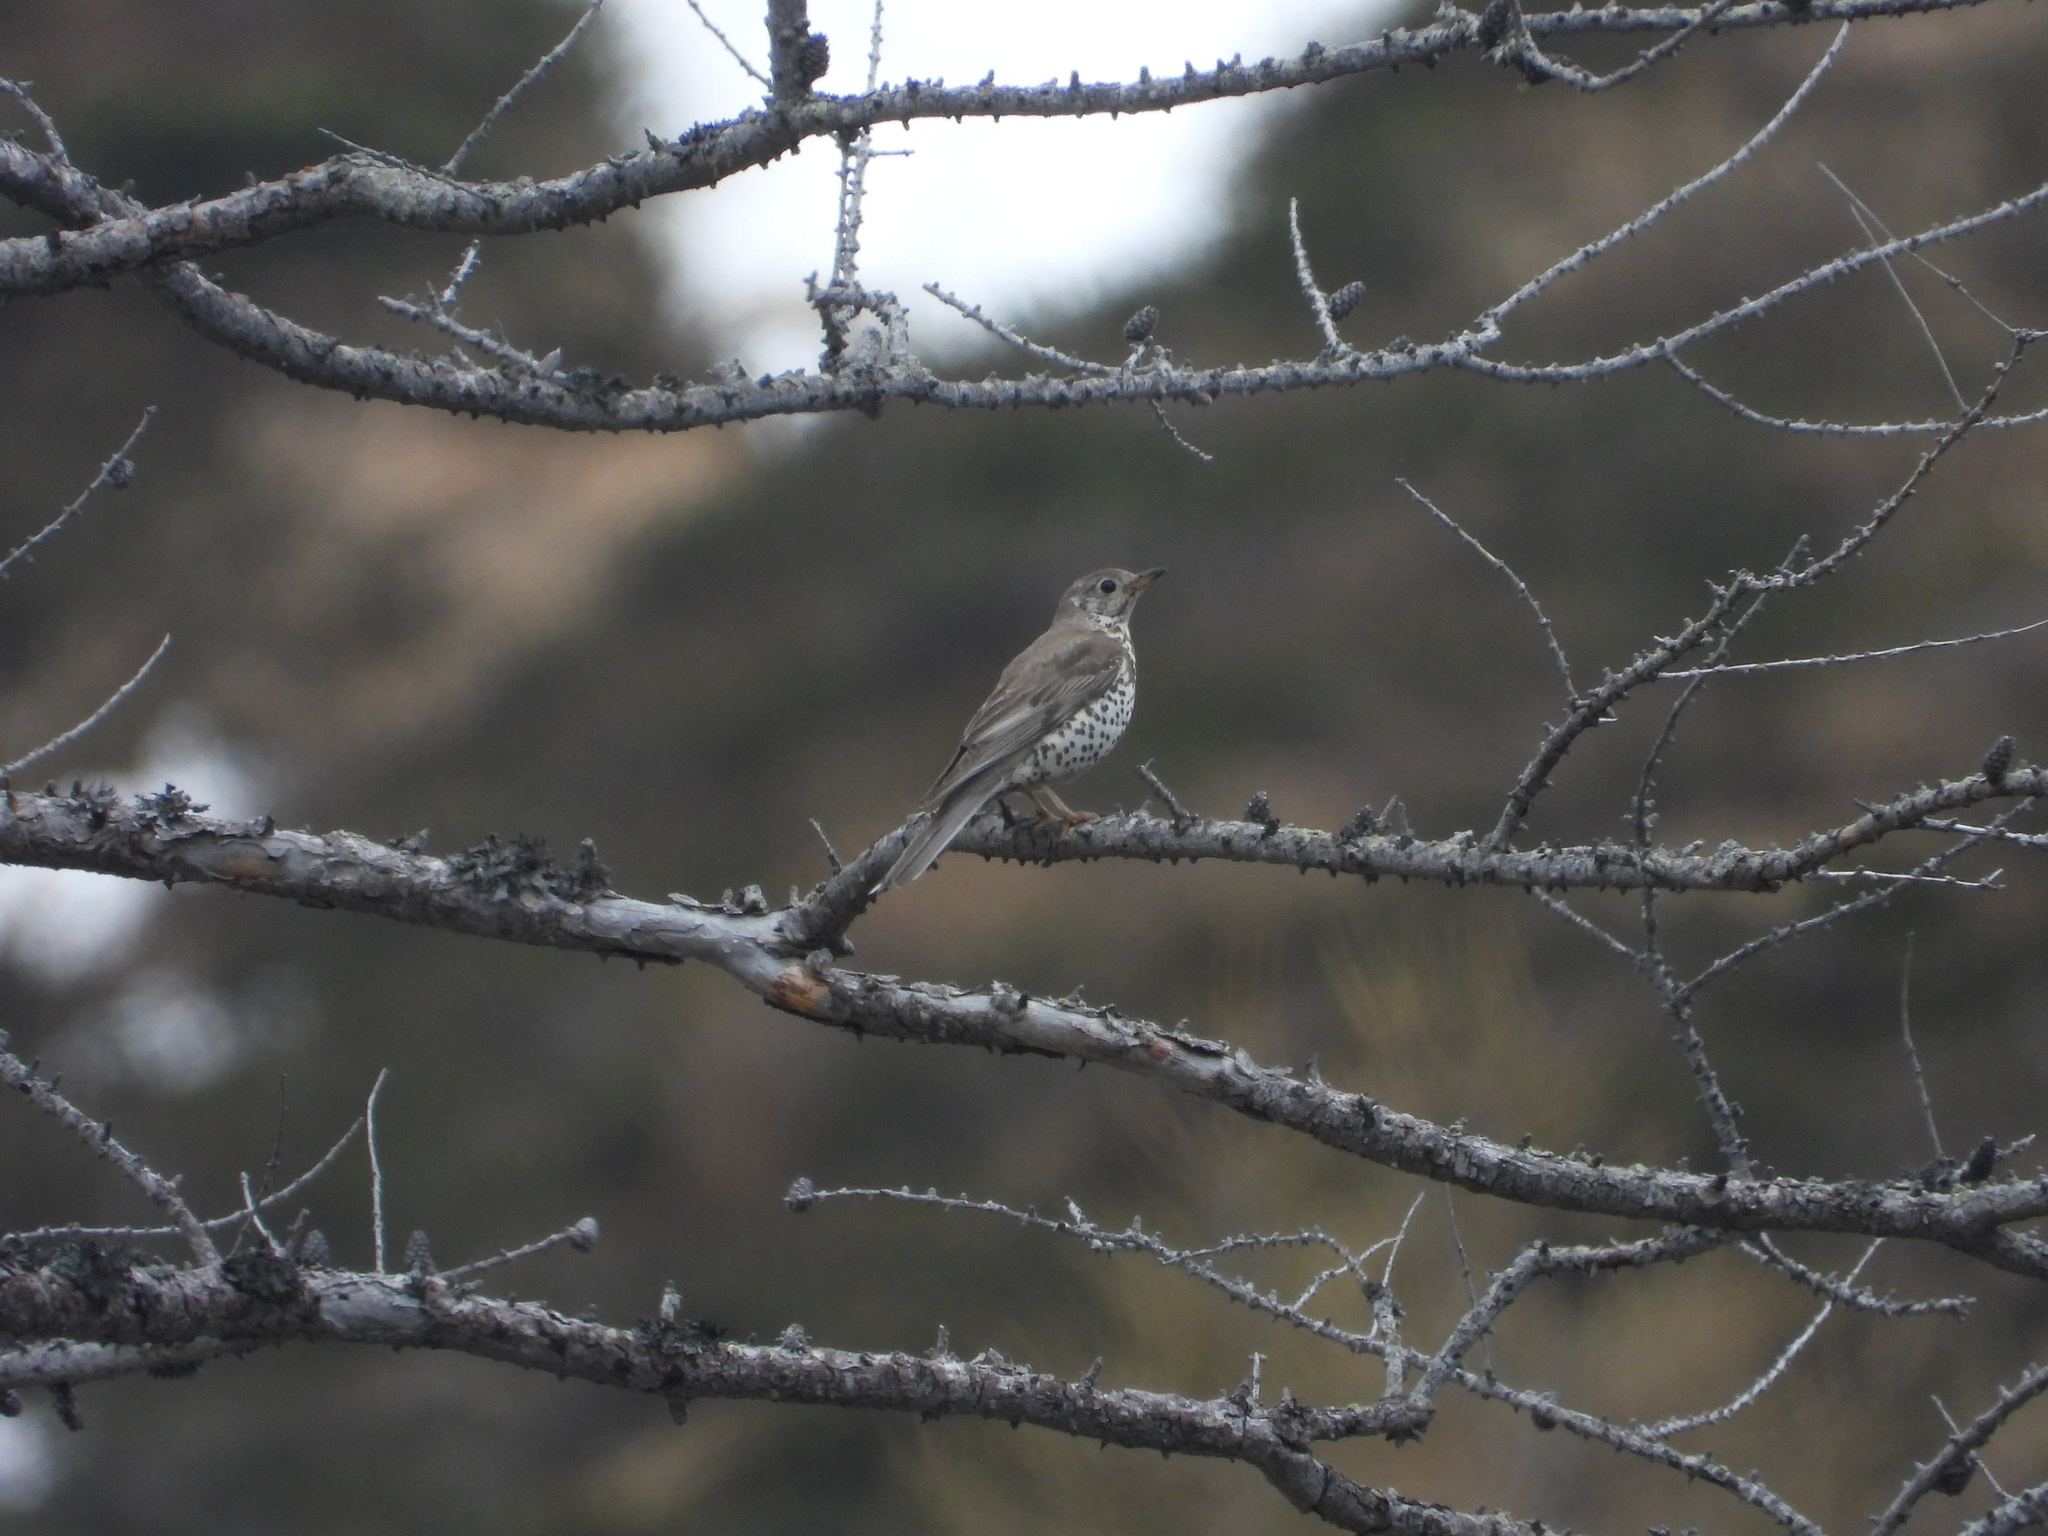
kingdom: Animalia
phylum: Chordata
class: Aves
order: Passeriformes
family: Turdidae
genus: Turdus
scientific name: Turdus viscivorus
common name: Mistle thrush
